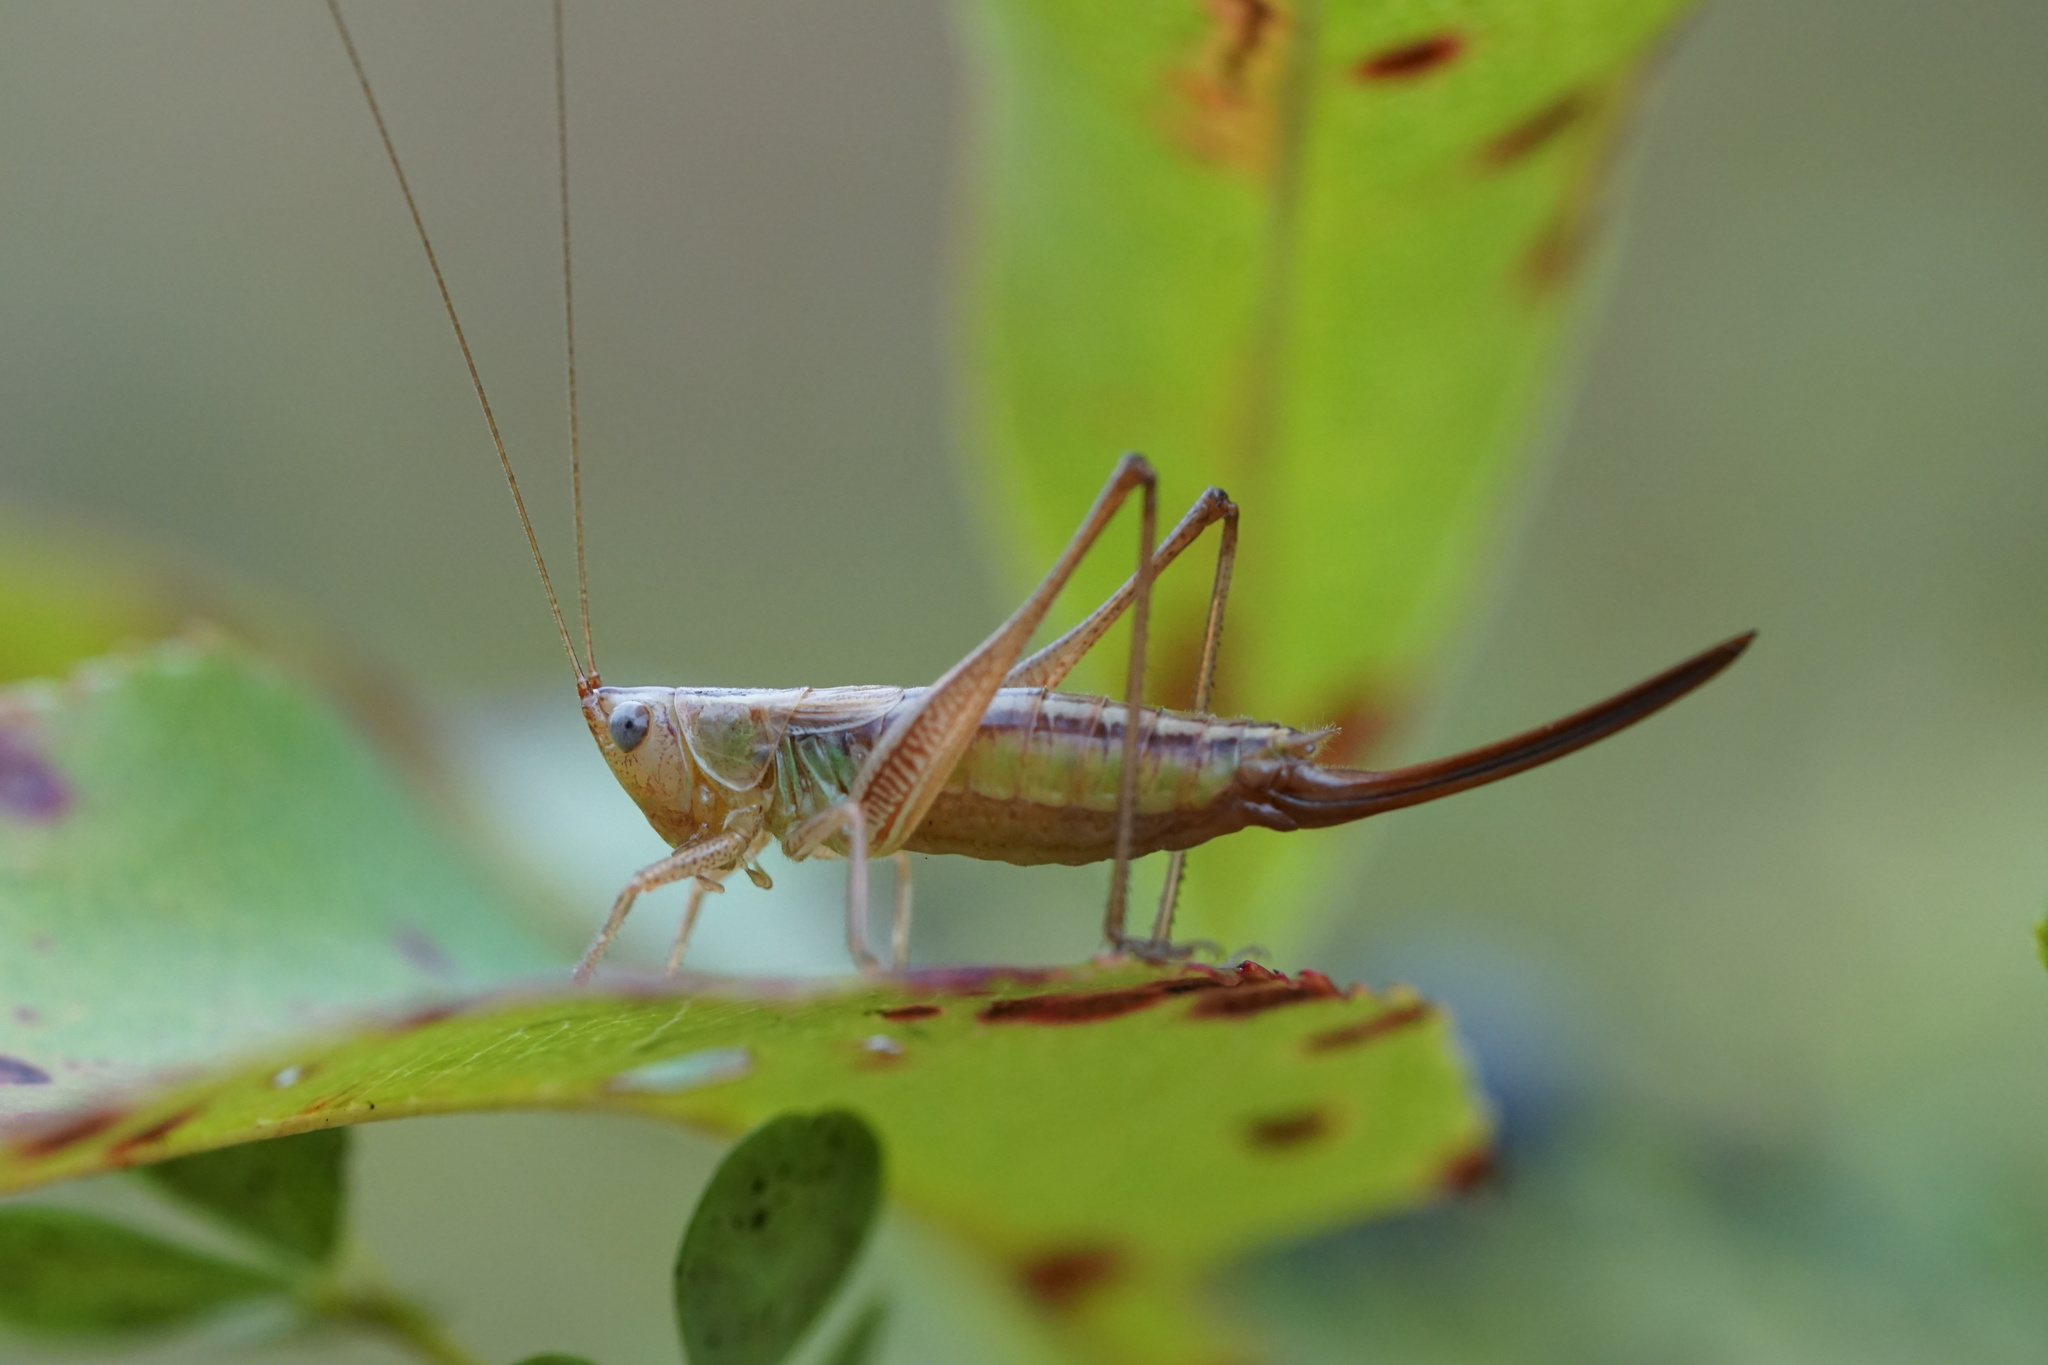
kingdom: Animalia
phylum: Arthropoda
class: Insecta
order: Orthoptera
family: Tettigoniidae
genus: Conocephalus
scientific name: Conocephalus saltans
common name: Prairie meadow katydid
